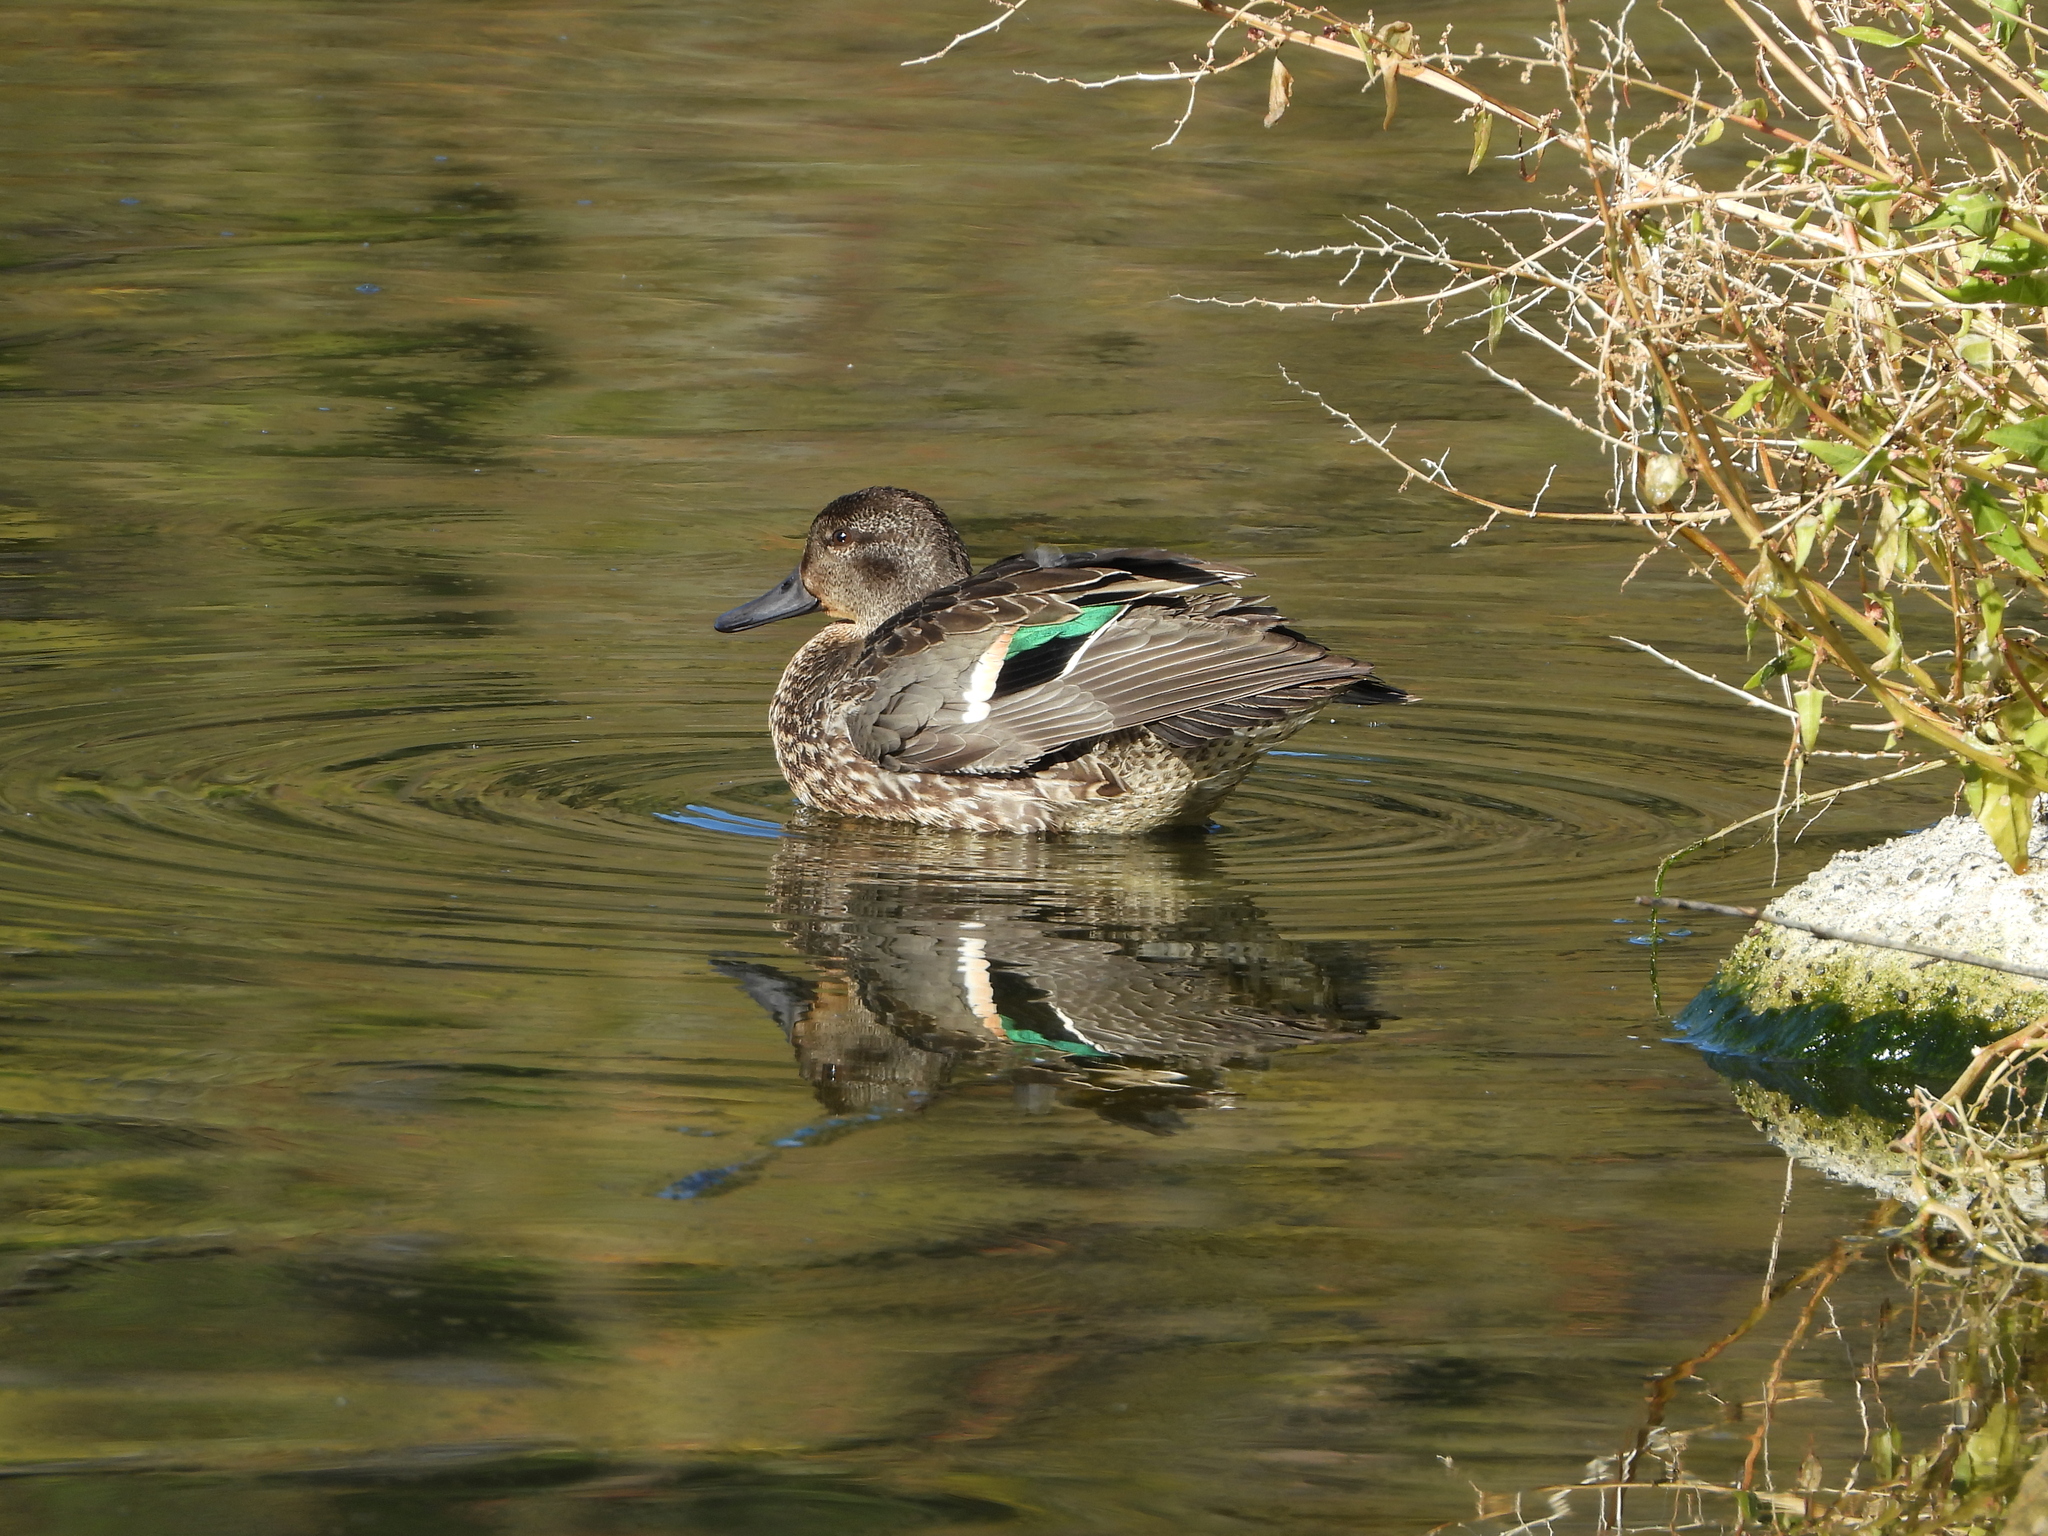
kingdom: Animalia
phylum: Chordata
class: Aves
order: Anseriformes
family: Anatidae
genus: Anas
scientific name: Anas crecca
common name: Eurasian teal
